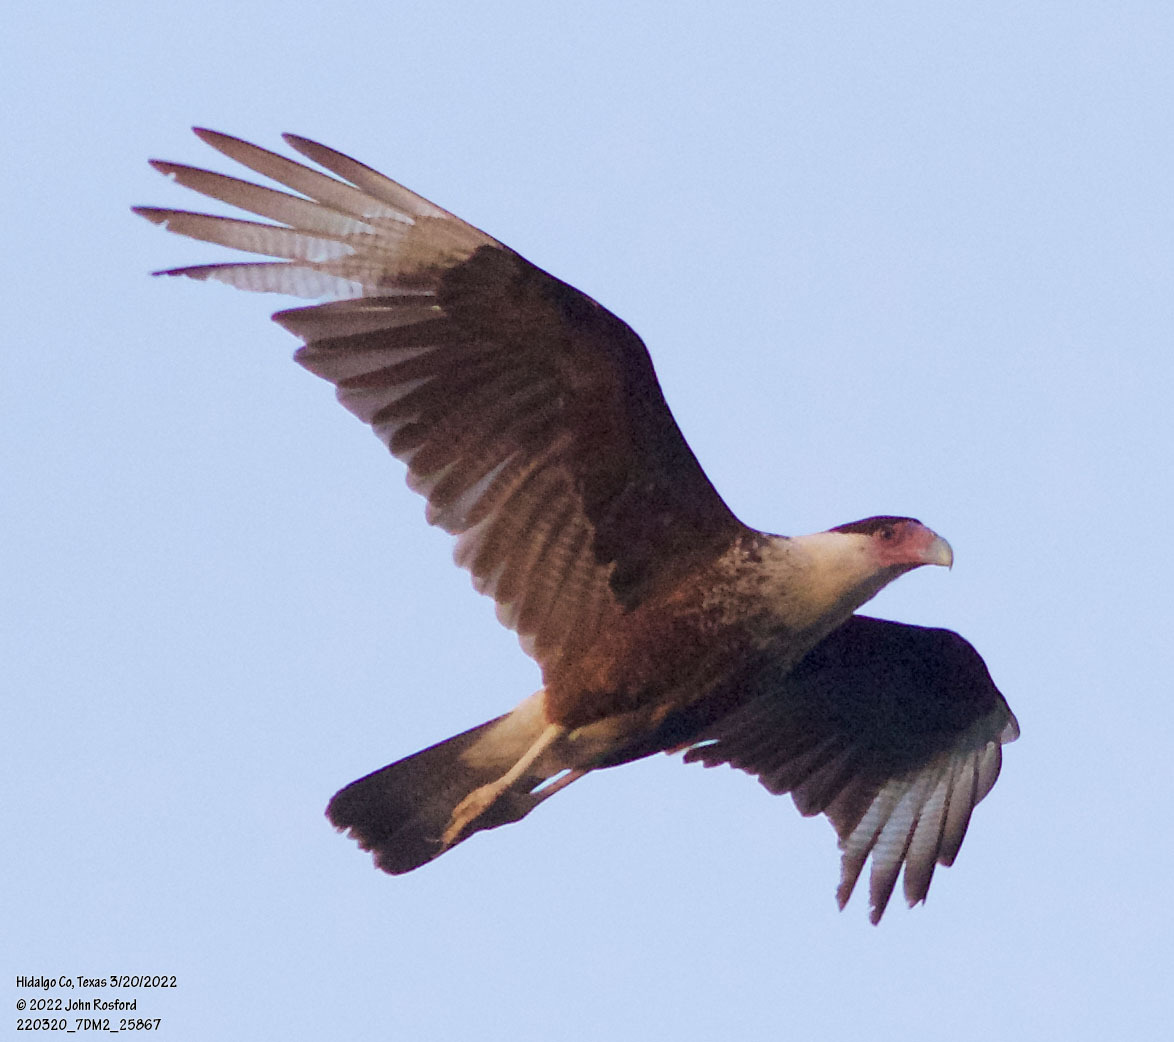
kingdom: Animalia
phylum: Chordata
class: Aves
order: Falconiformes
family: Falconidae
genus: Caracara
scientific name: Caracara plancus
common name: Southern caracara
